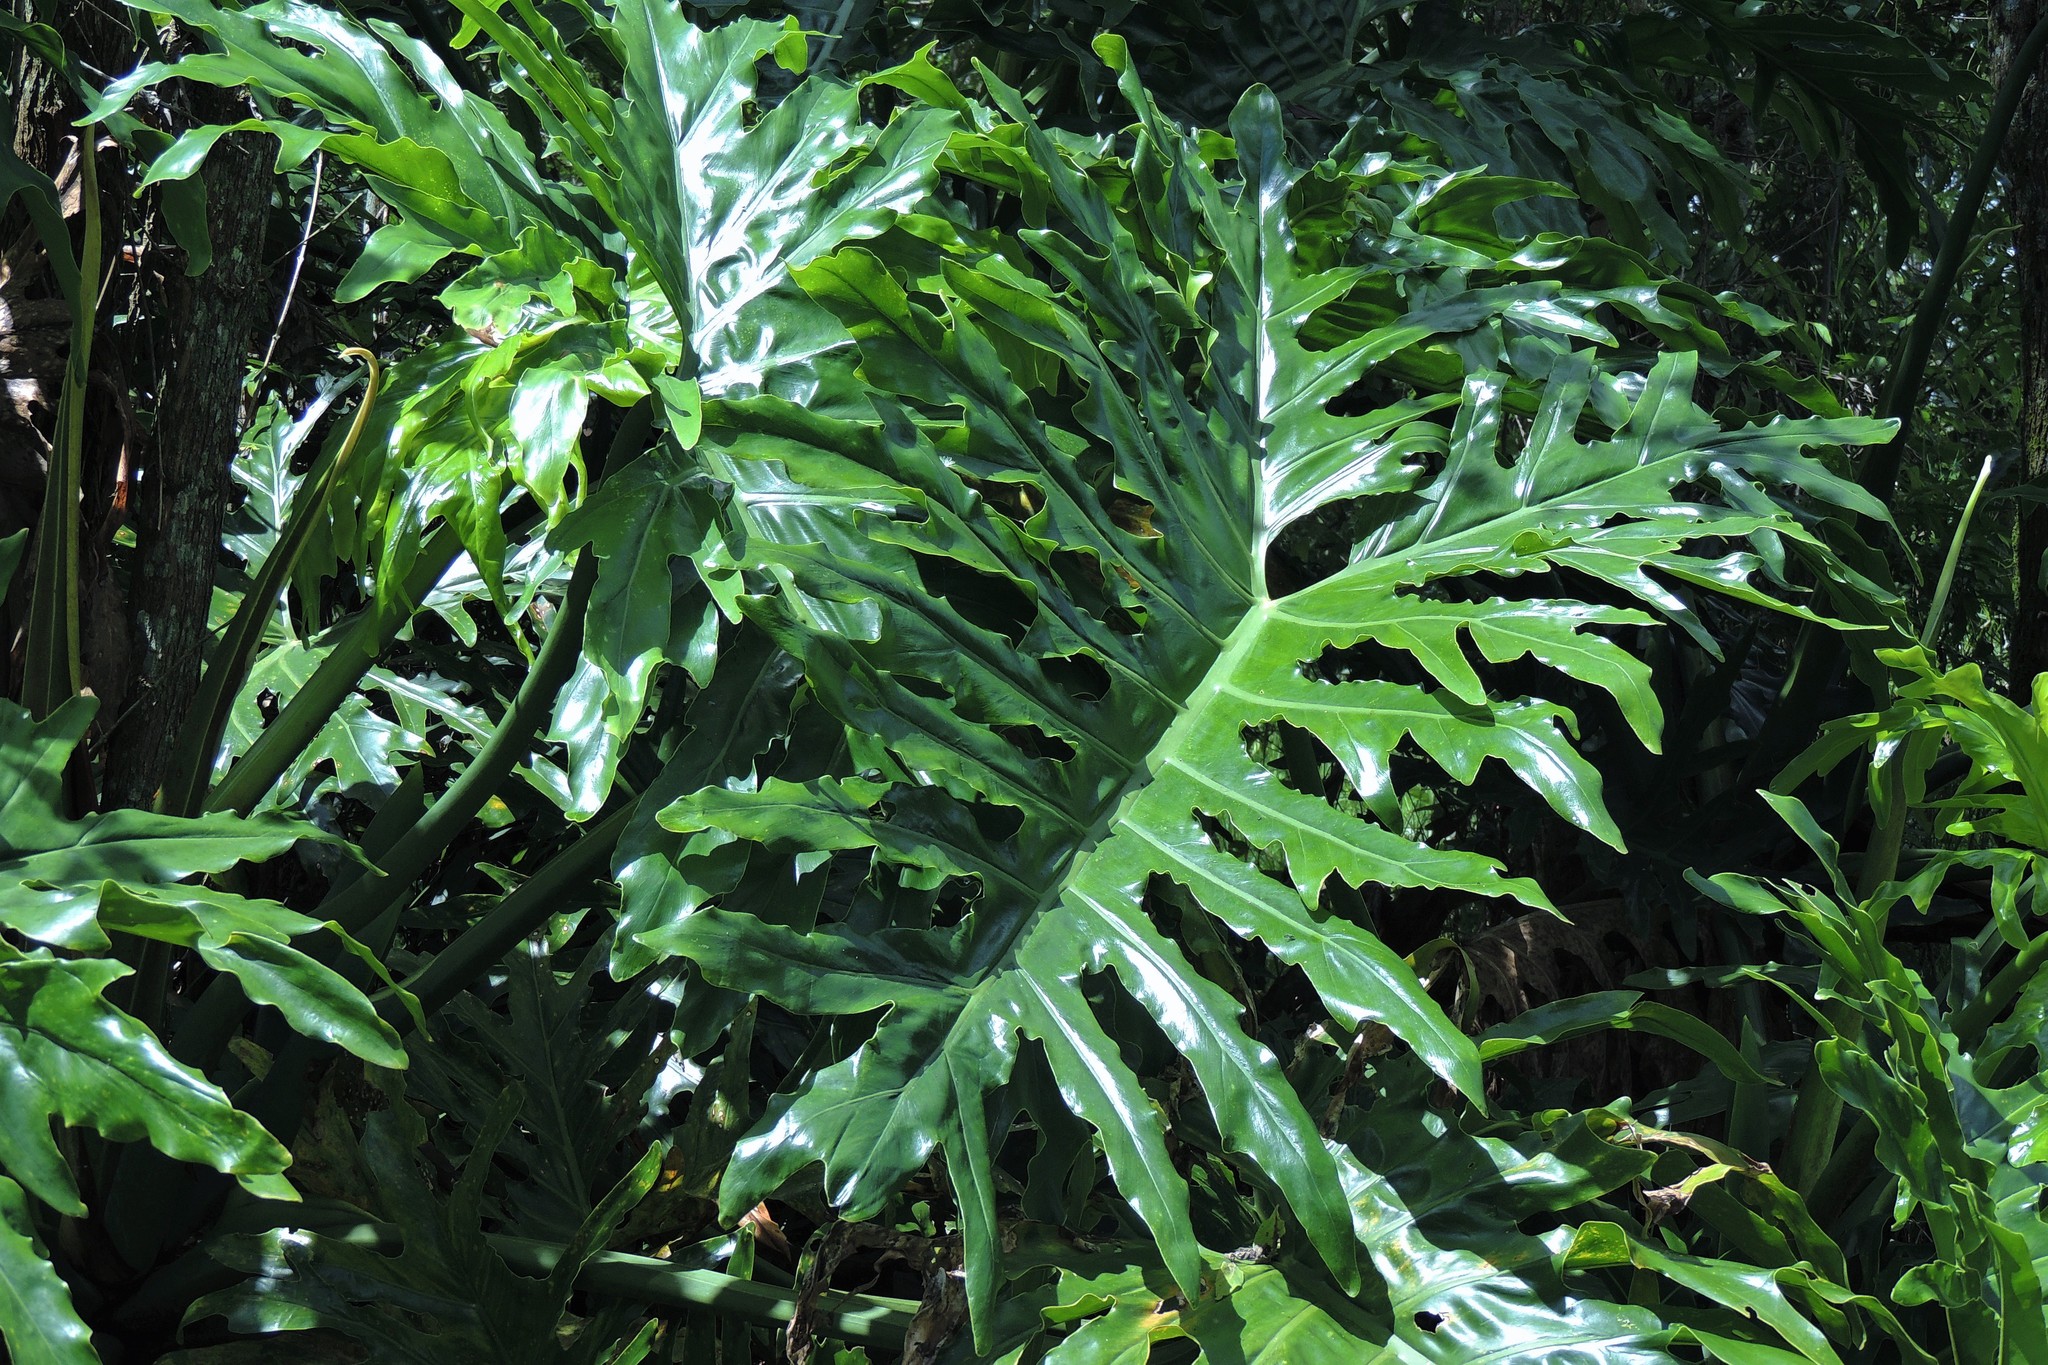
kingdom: Plantae
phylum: Tracheophyta
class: Liliopsida
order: Alismatales
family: Araceae
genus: Thaumatophyllum
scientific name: Thaumatophyllum bipinnatifidum
